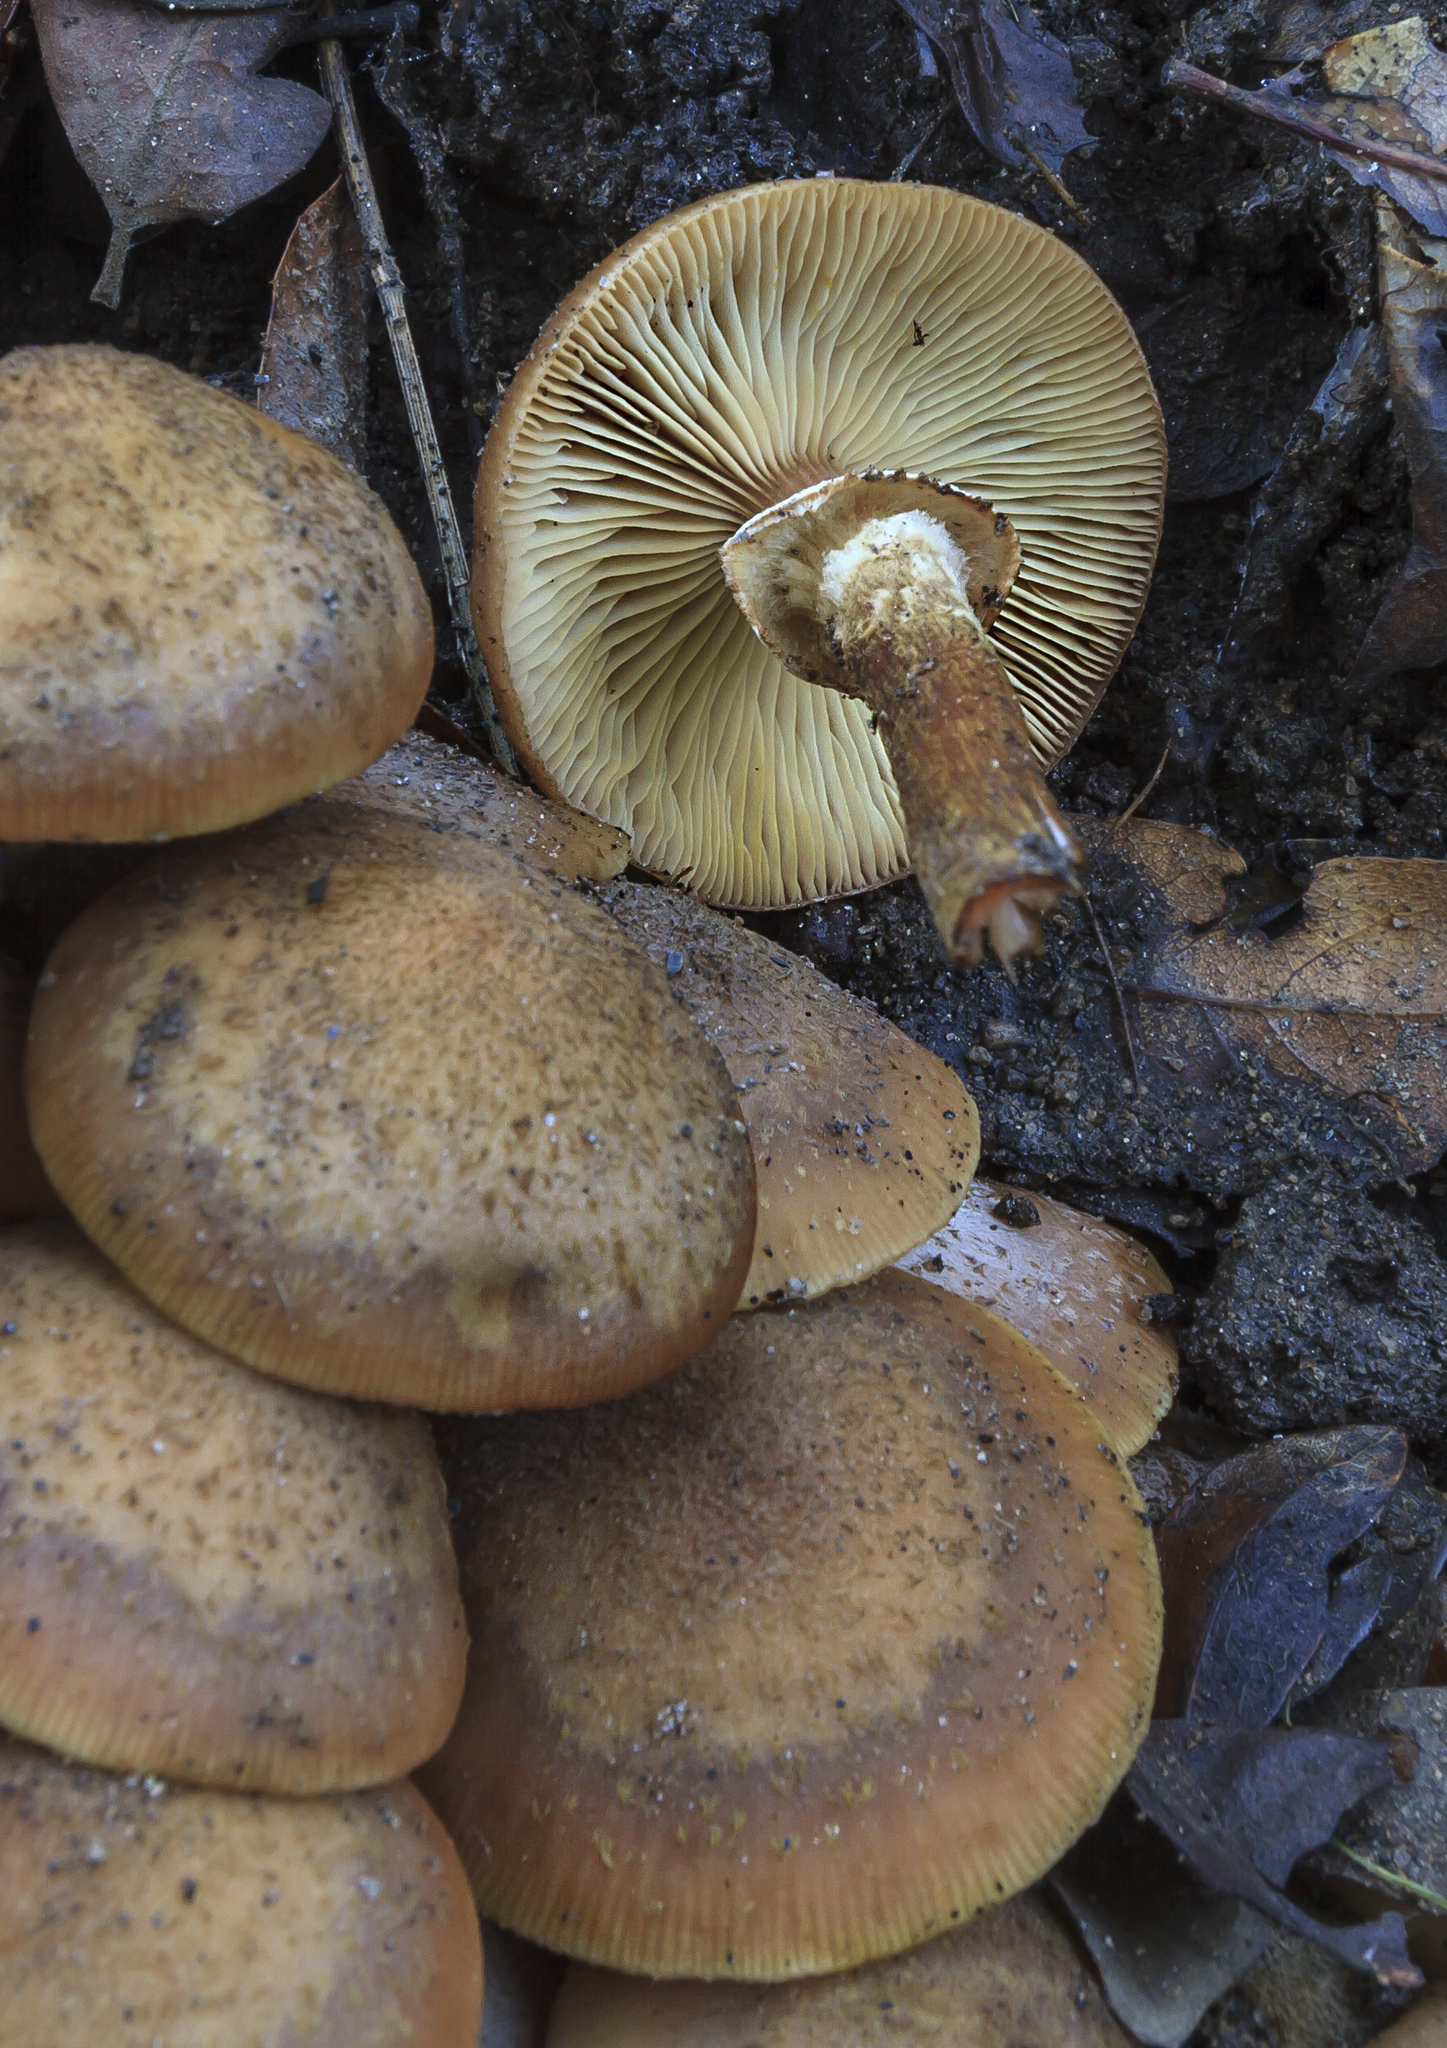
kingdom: Fungi
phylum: Basidiomycota
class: Agaricomycetes
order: Agaricales
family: Physalacriaceae
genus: Armillaria
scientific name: Armillaria mellea
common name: Honey fungus
